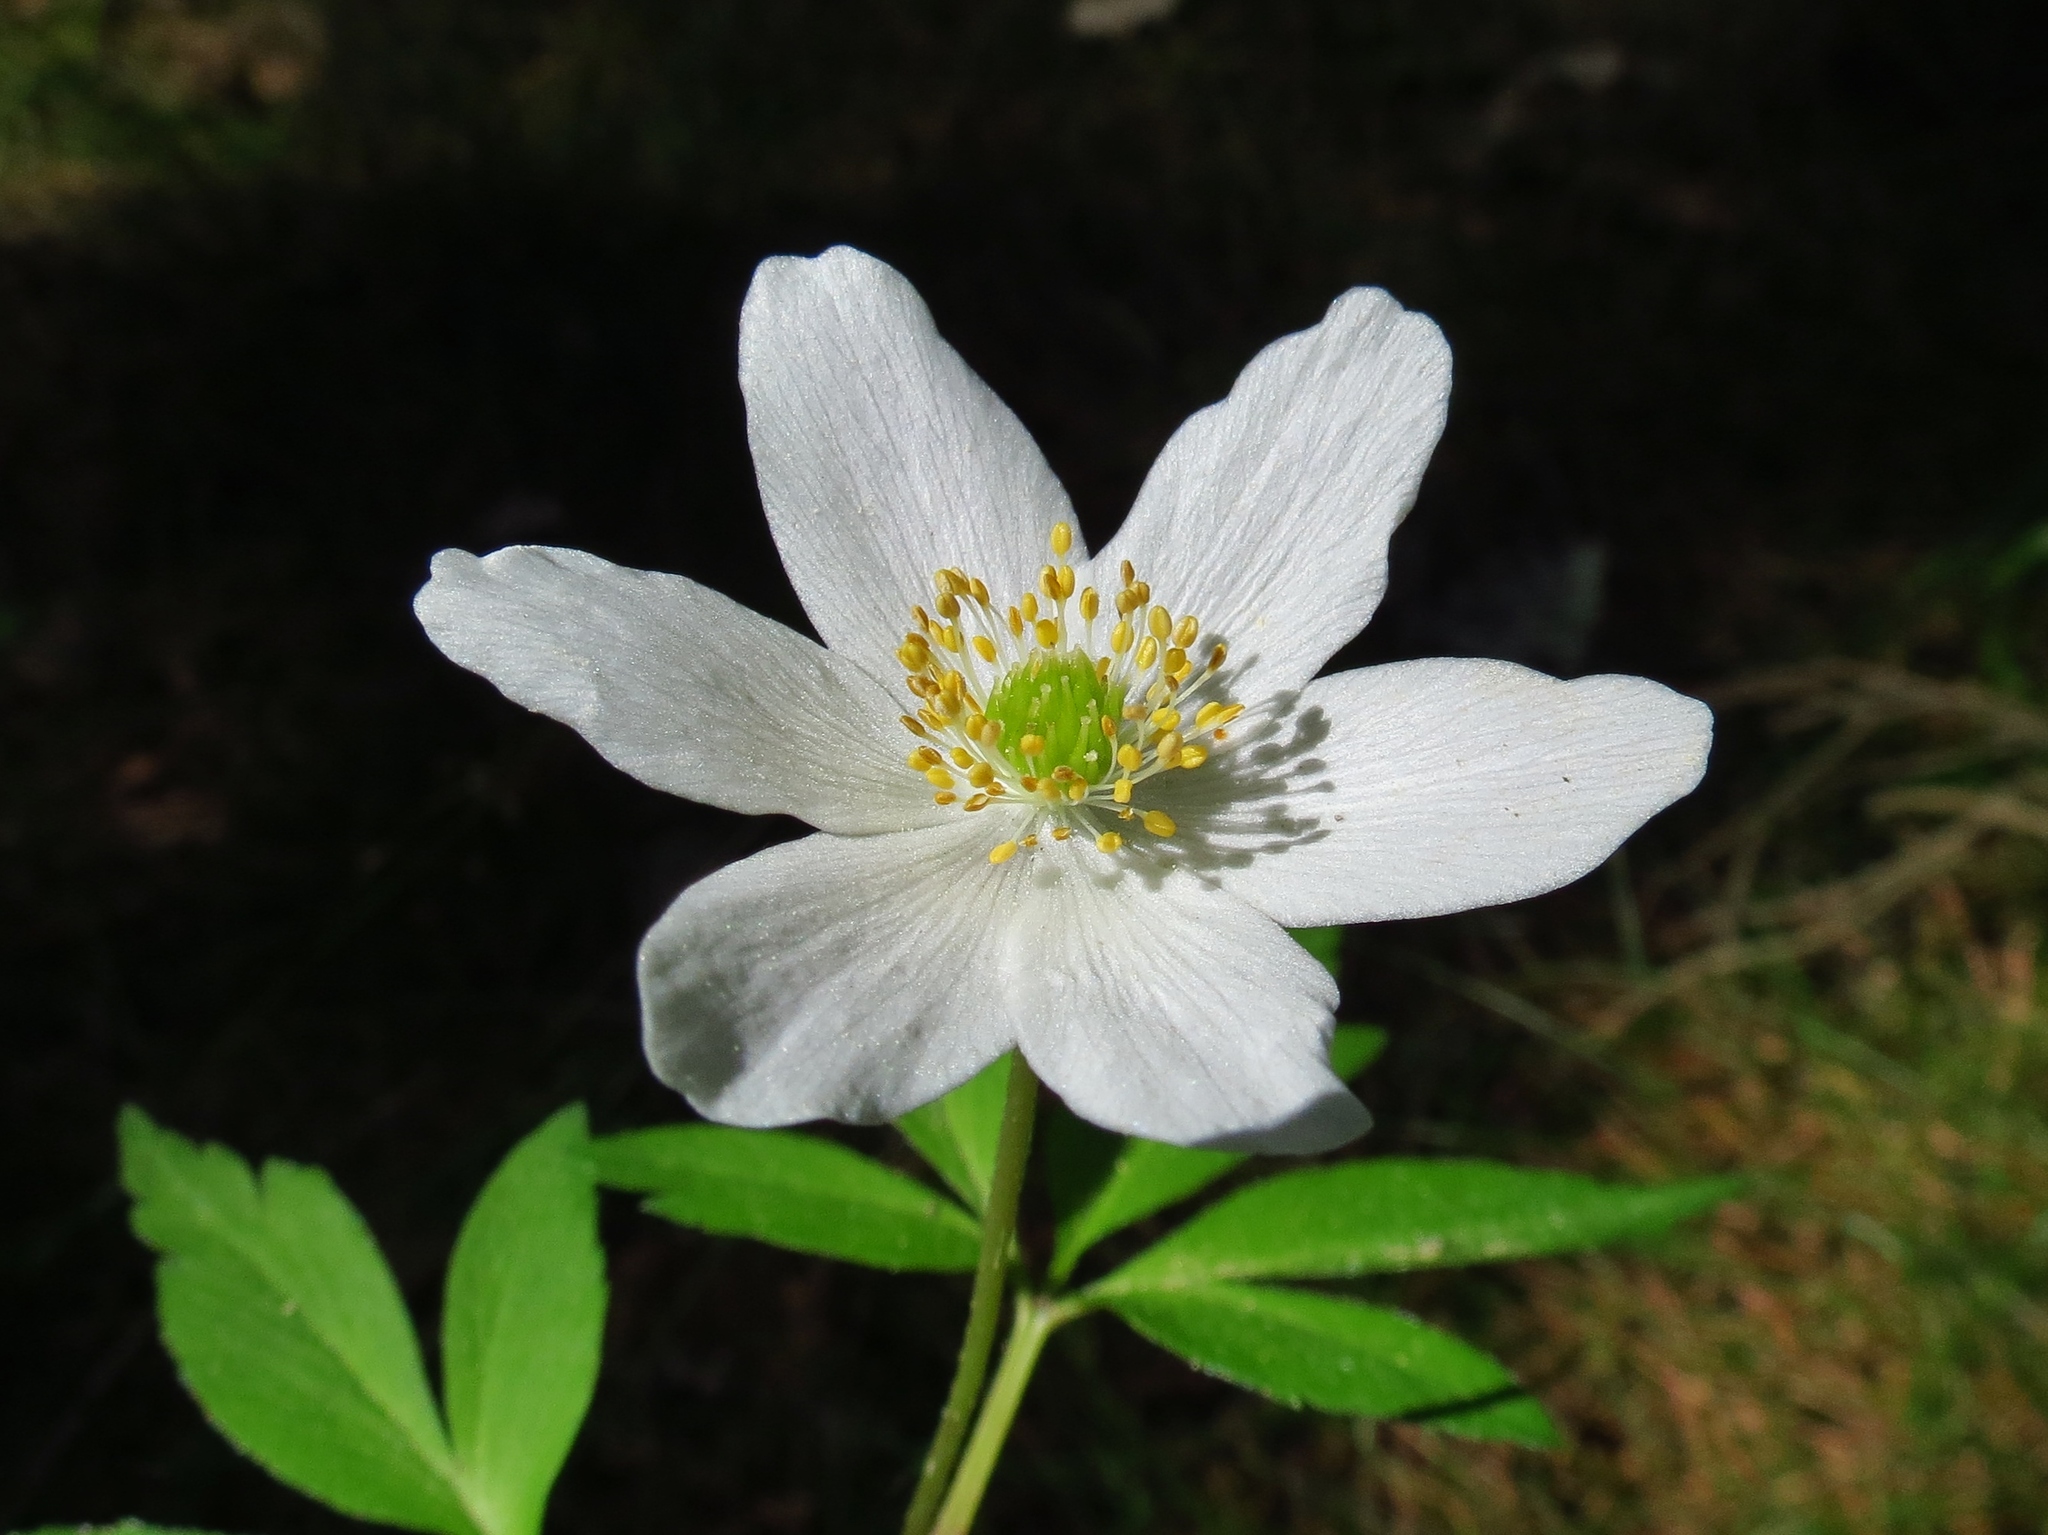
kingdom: Plantae
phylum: Tracheophyta
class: Magnoliopsida
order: Ranunculales
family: Ranunculaceae
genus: Anemone
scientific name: Anemone nemorosa
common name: Wood anemone
